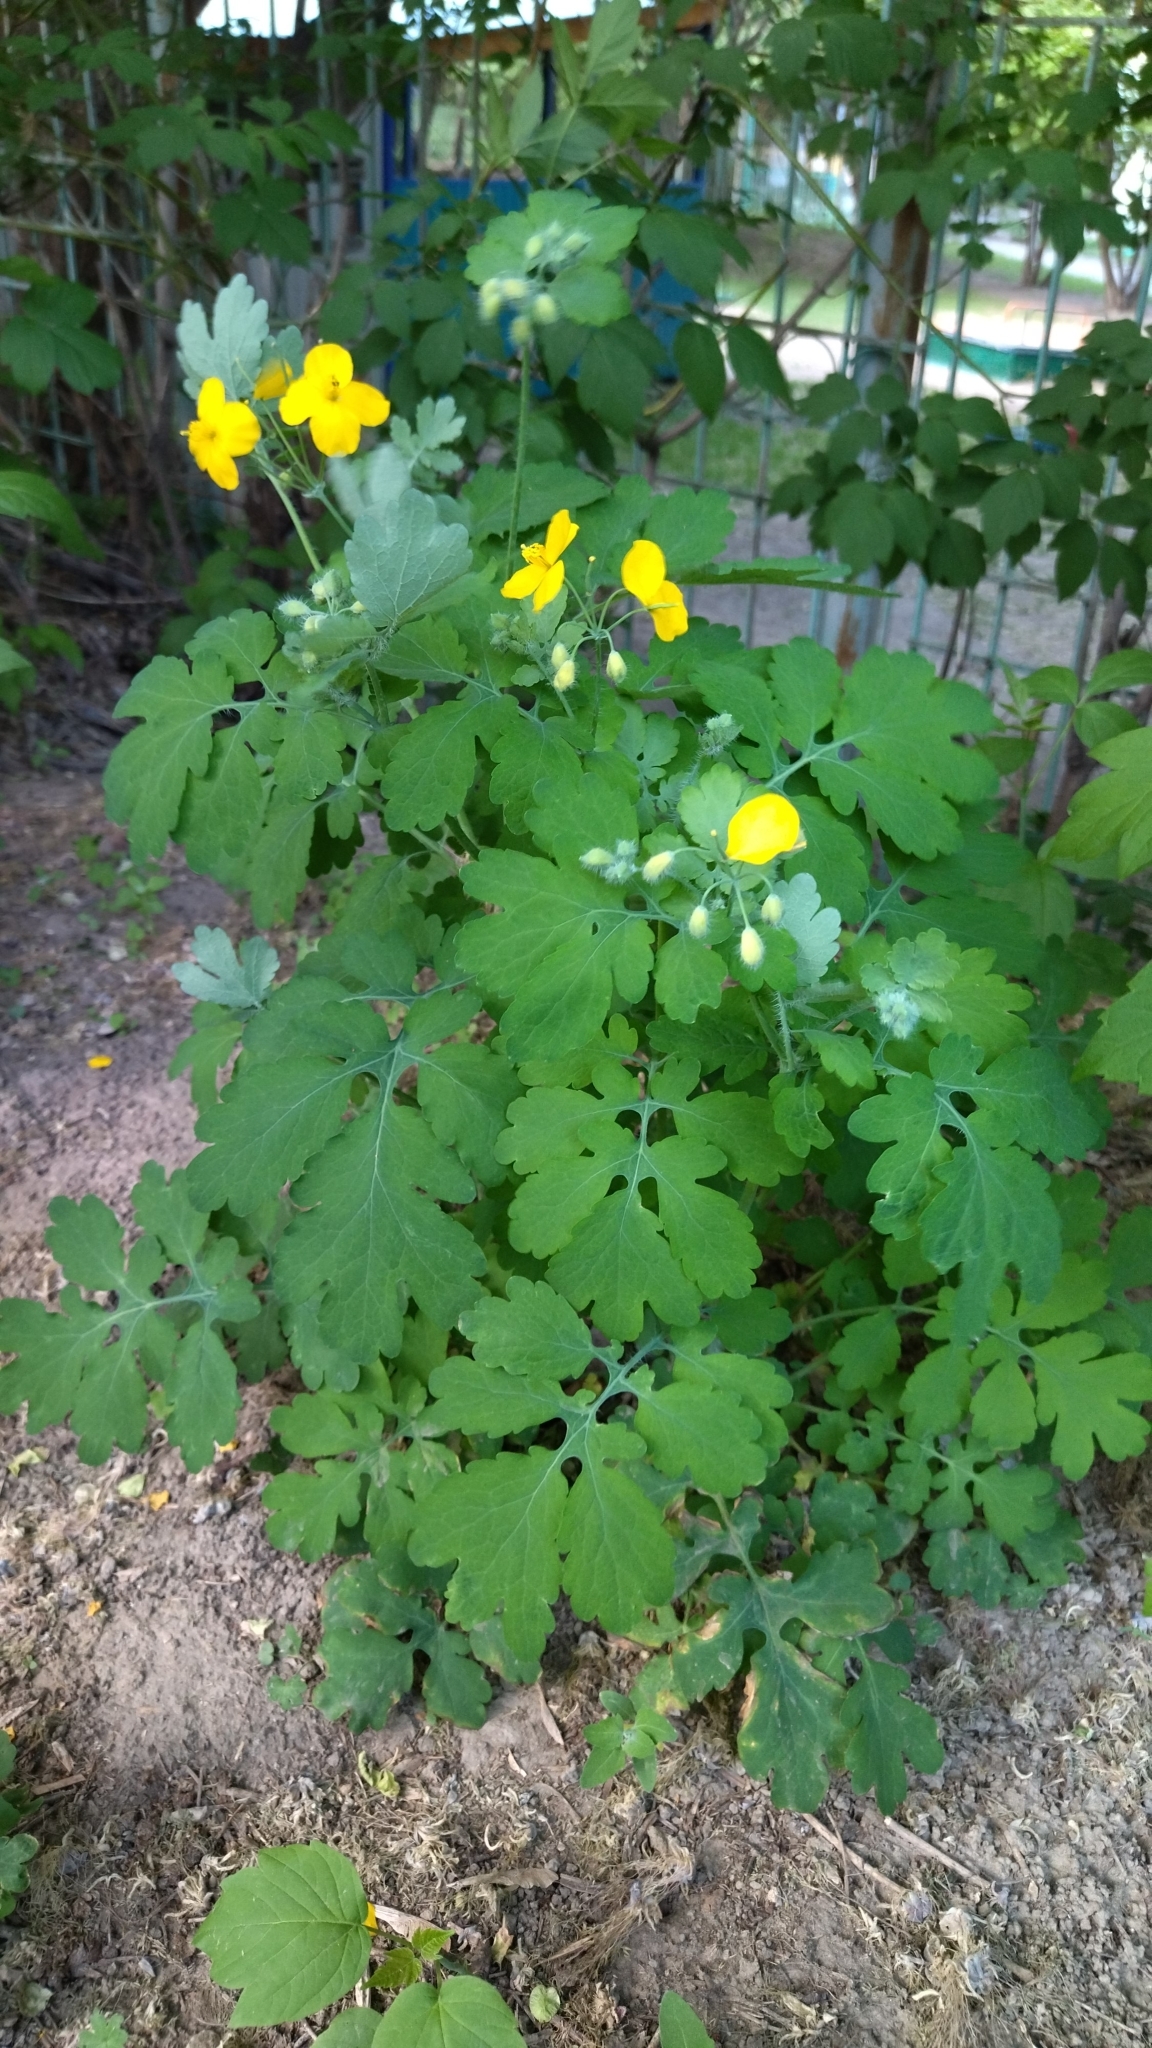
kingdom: Plantae
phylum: Tracheophyta
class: Magnoliopsida
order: Ranunculales
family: Papaveraceae
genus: Chelidonium
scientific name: Chelidonium majus
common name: Greater celandine
